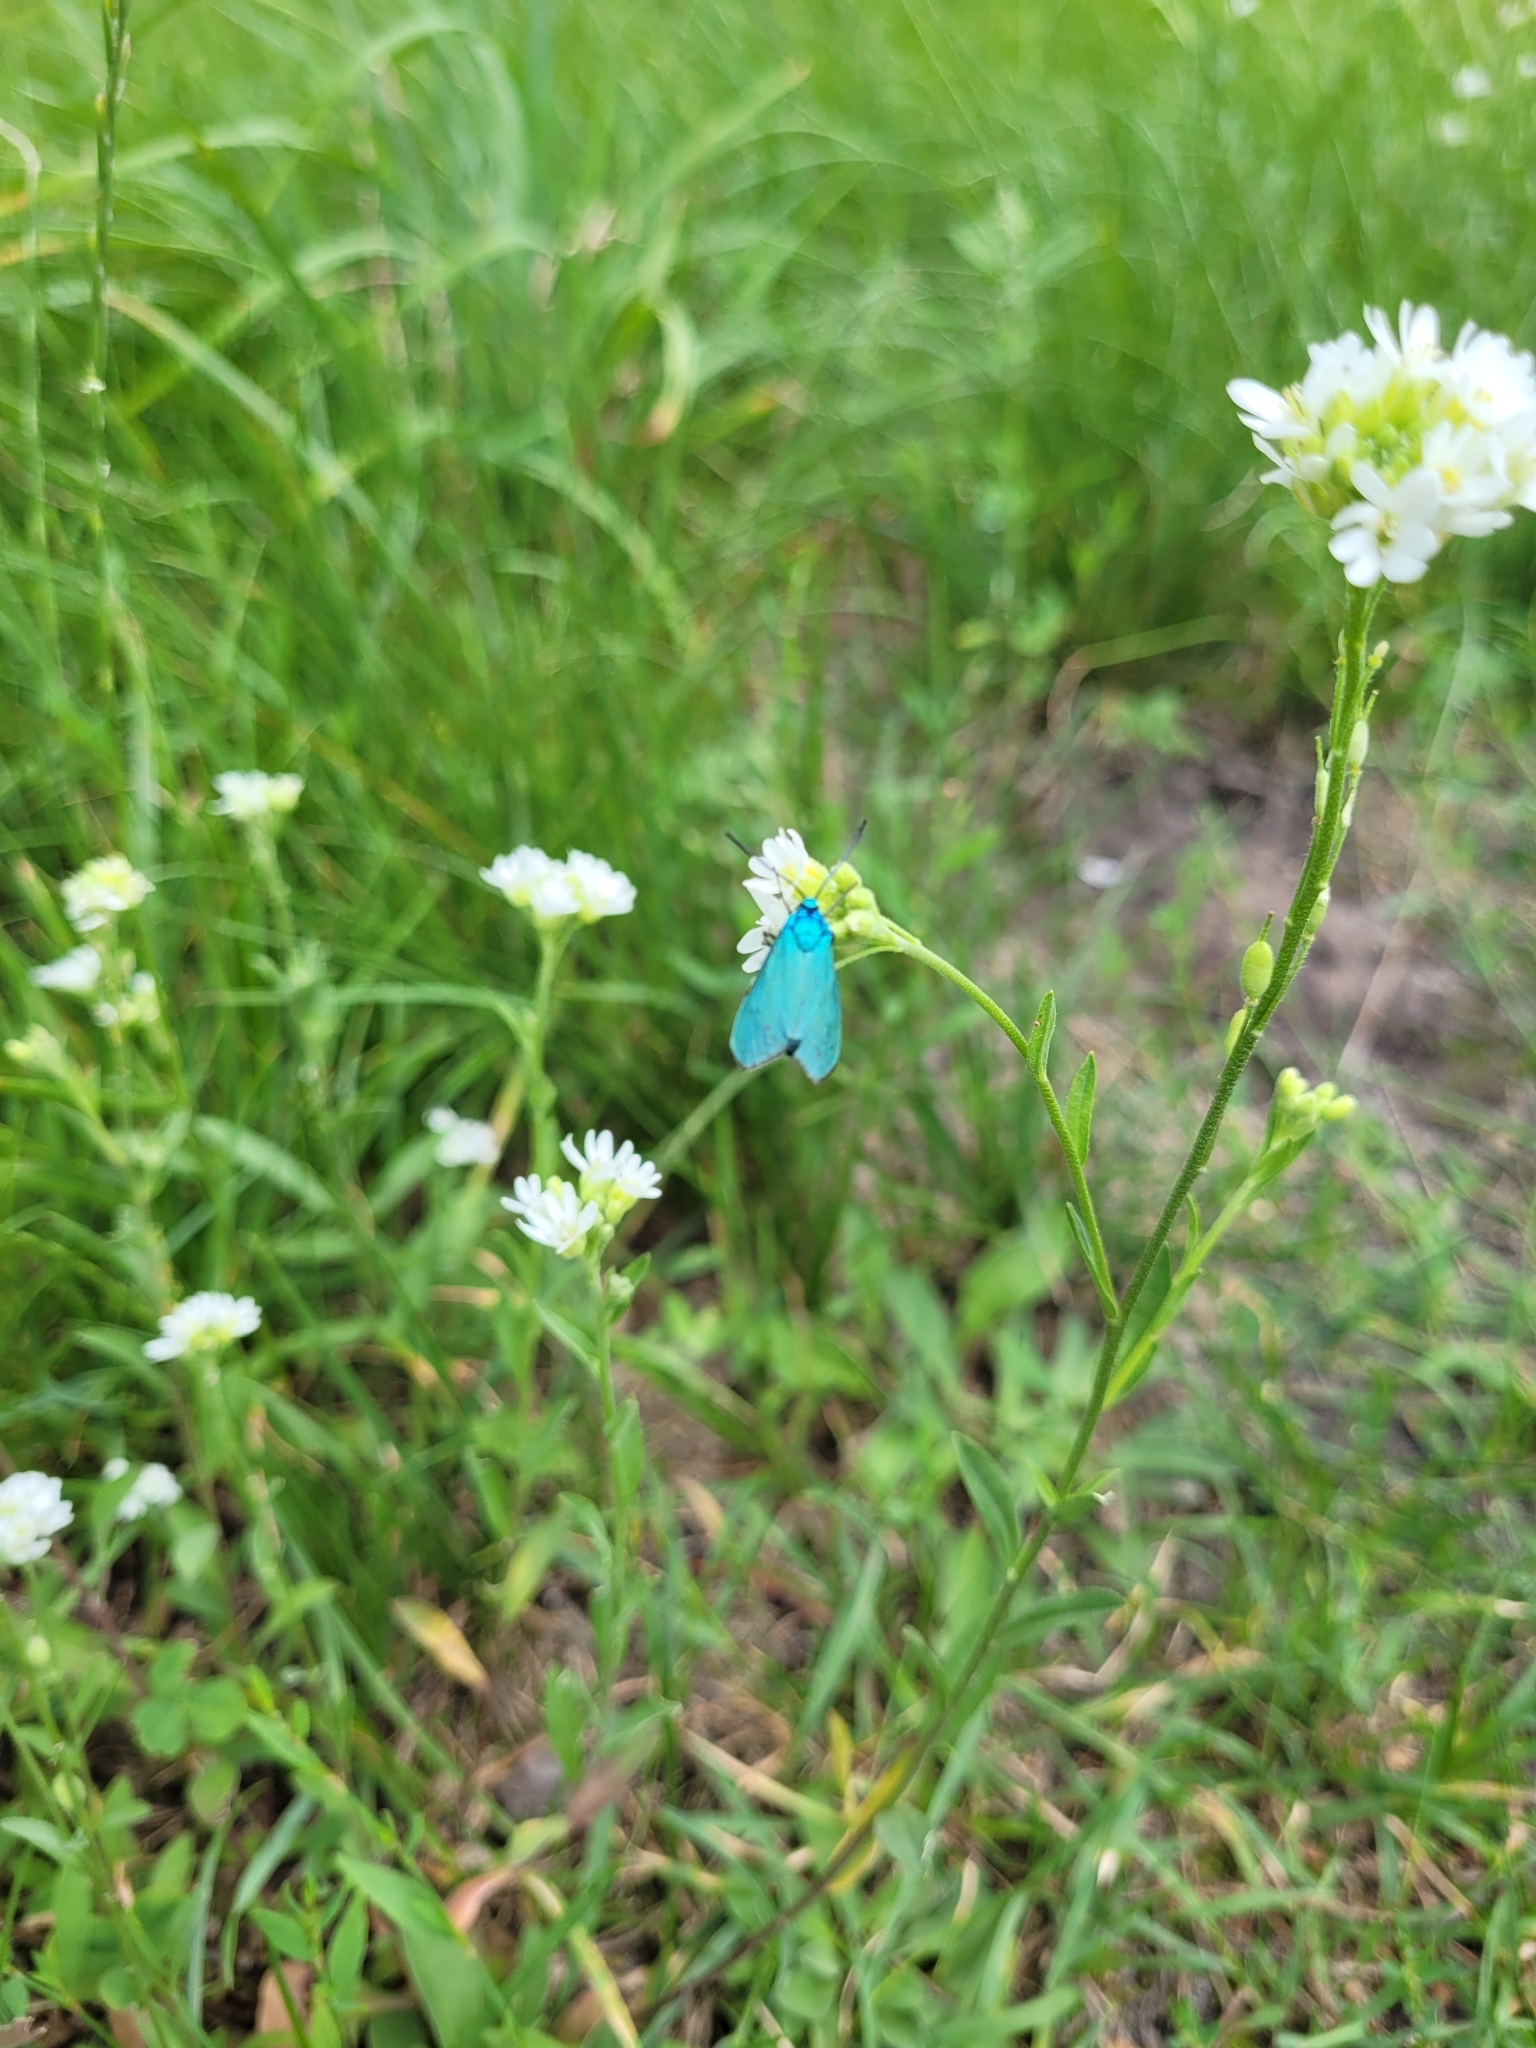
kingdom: Animalia
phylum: Arthropoda
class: Insecta
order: Lepidoptera
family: Zygaenidae
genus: Adscita
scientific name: Adscita statices
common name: Forester
